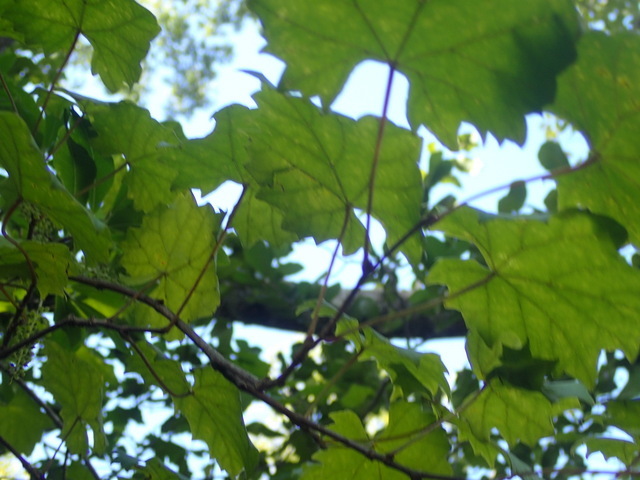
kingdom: Plantae
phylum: Tracheophyta
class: Magnoliopsida
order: Vitales
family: Vitaceae
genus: Vitis
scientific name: Vitis rotundifolia
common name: Muscadine grape
